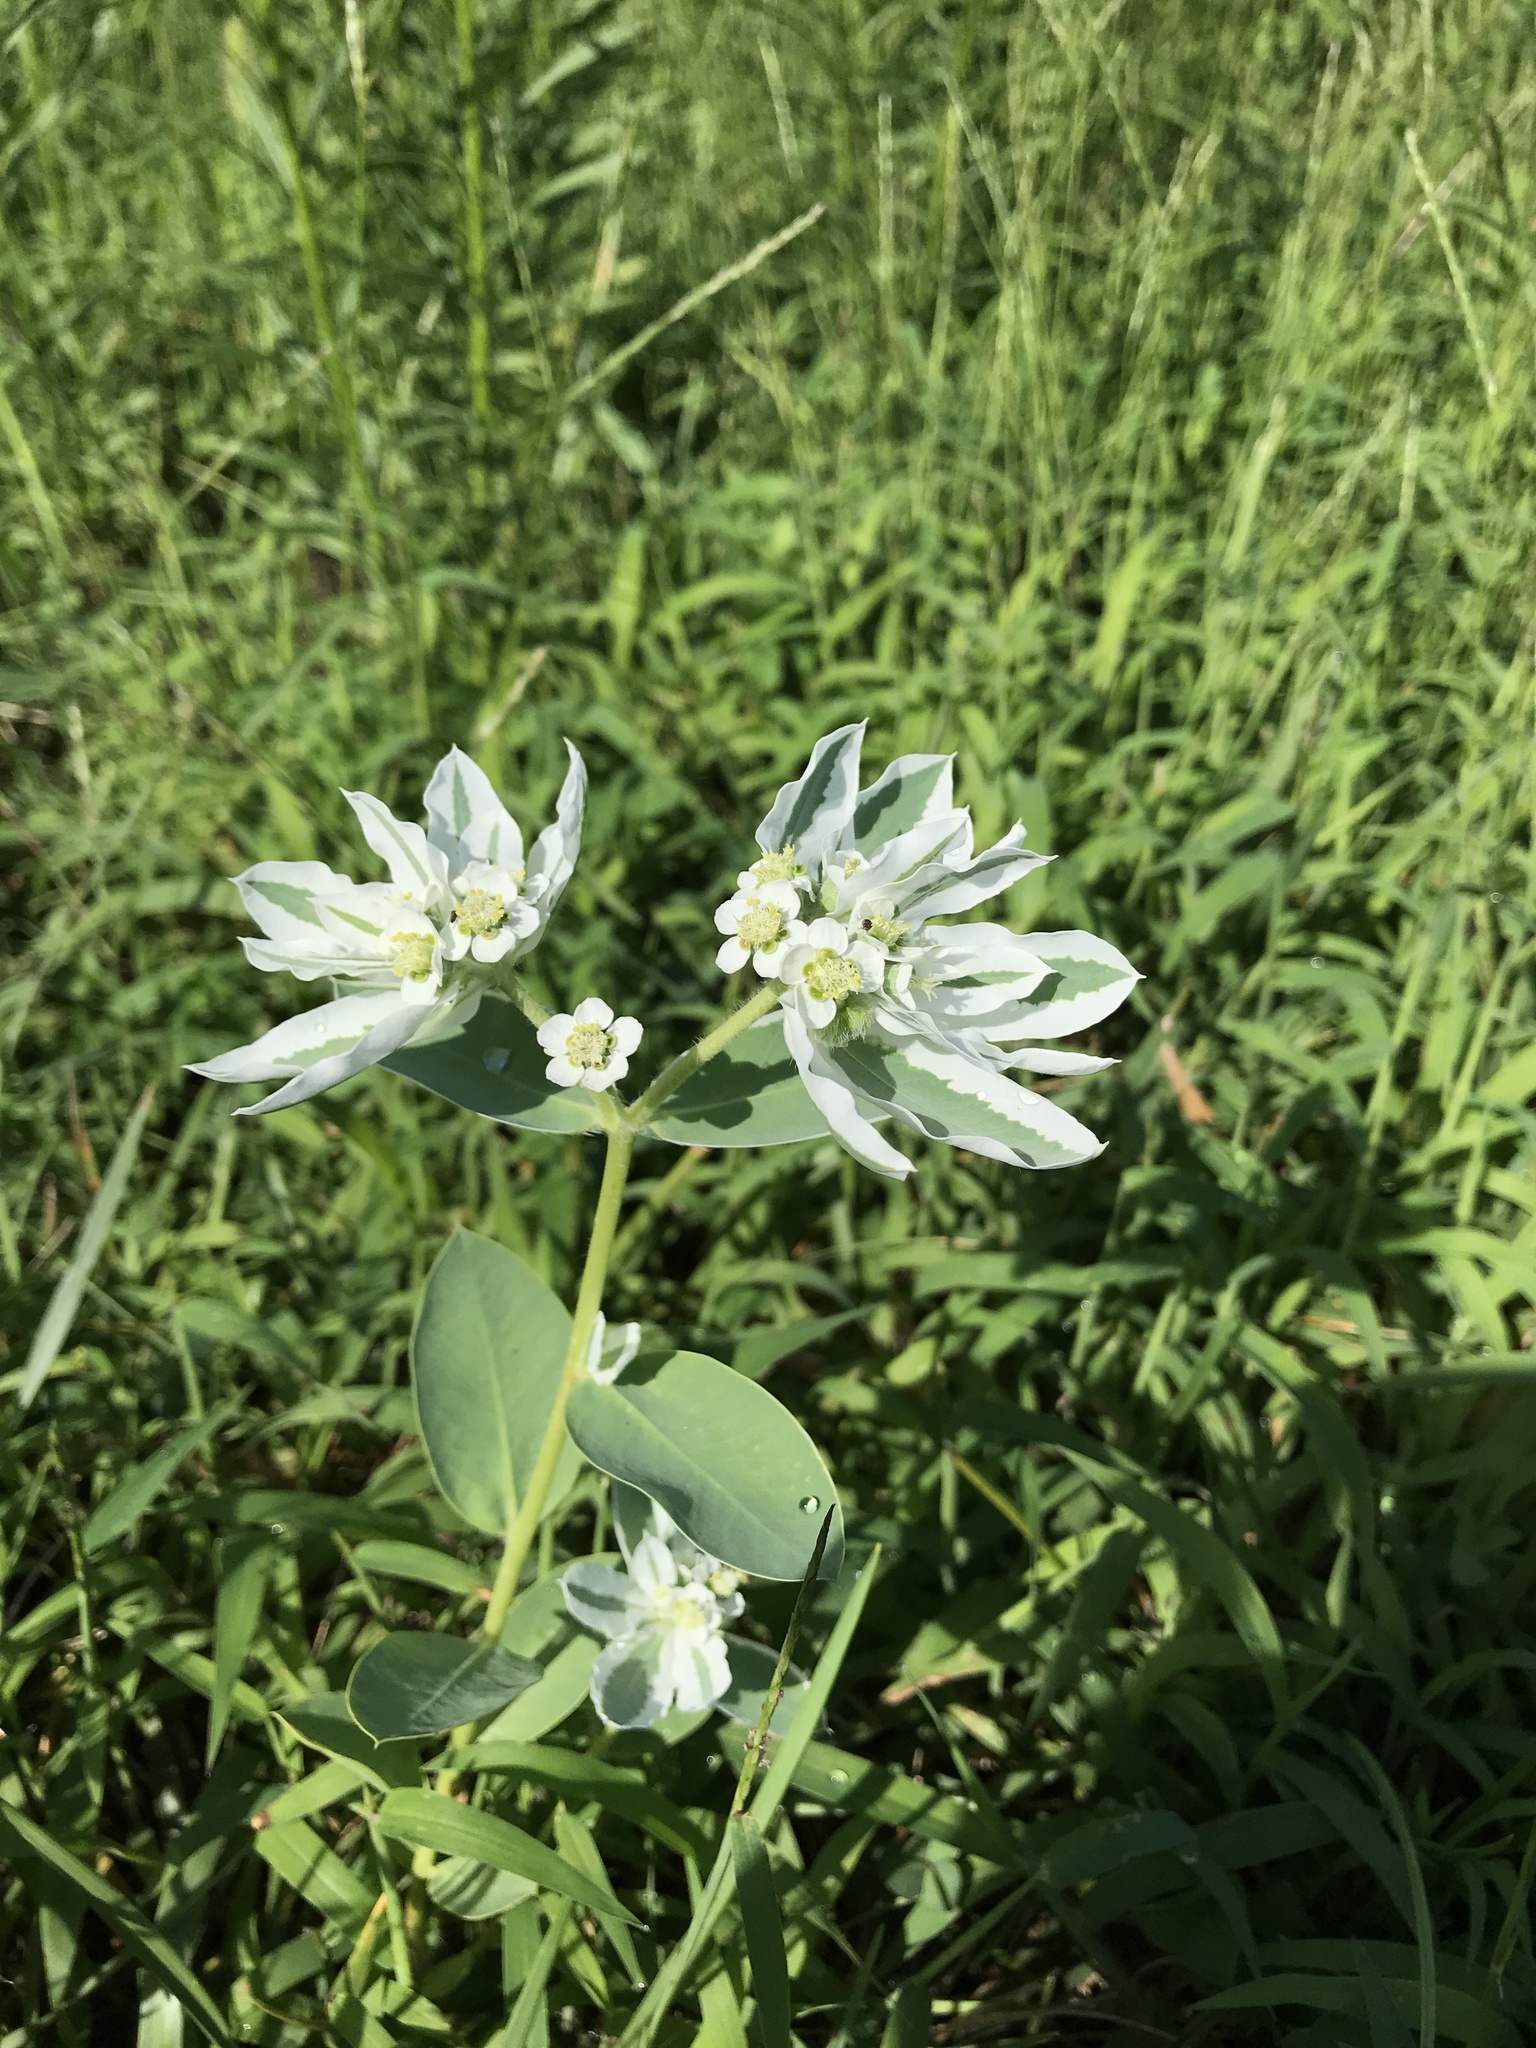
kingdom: Plantae
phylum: Tracheophyta
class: Magnoliopsida
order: Malpighiales
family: Euphorbiaceae
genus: Euphorbia
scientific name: Euphorbia marginata
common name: Ghostweed
